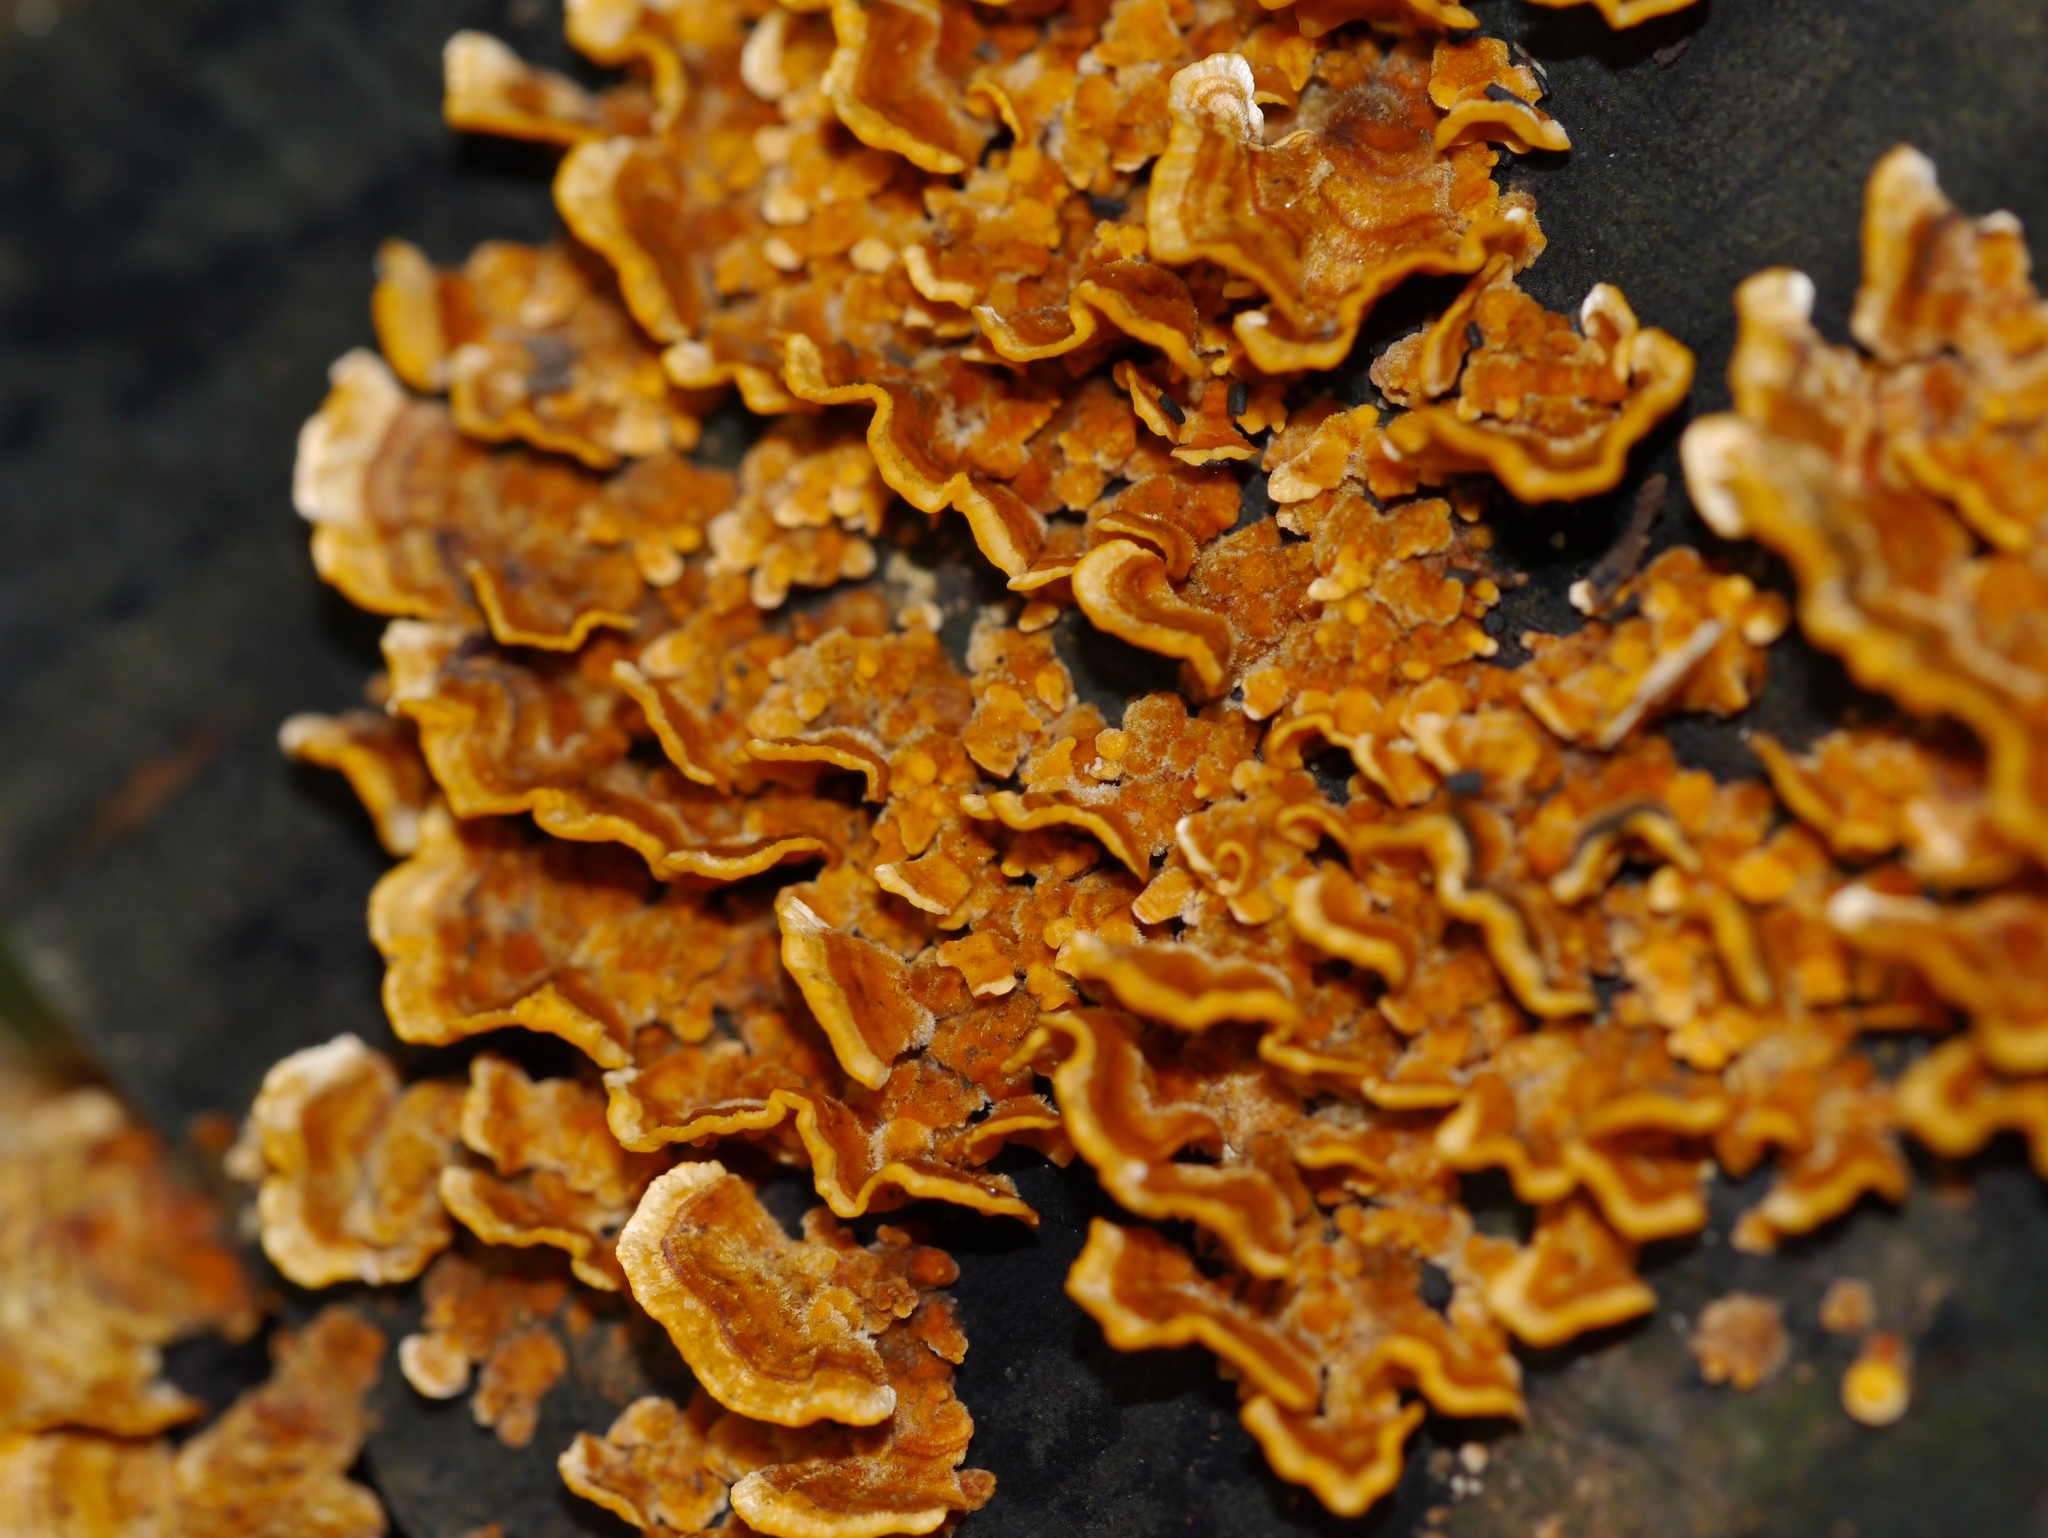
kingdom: Fungi
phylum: Basidiomycota
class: Agaricomycetes
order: Russulales
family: Stereaceae
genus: Stereum
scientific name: Stereum hirsutum
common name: Hairy curtain crust
